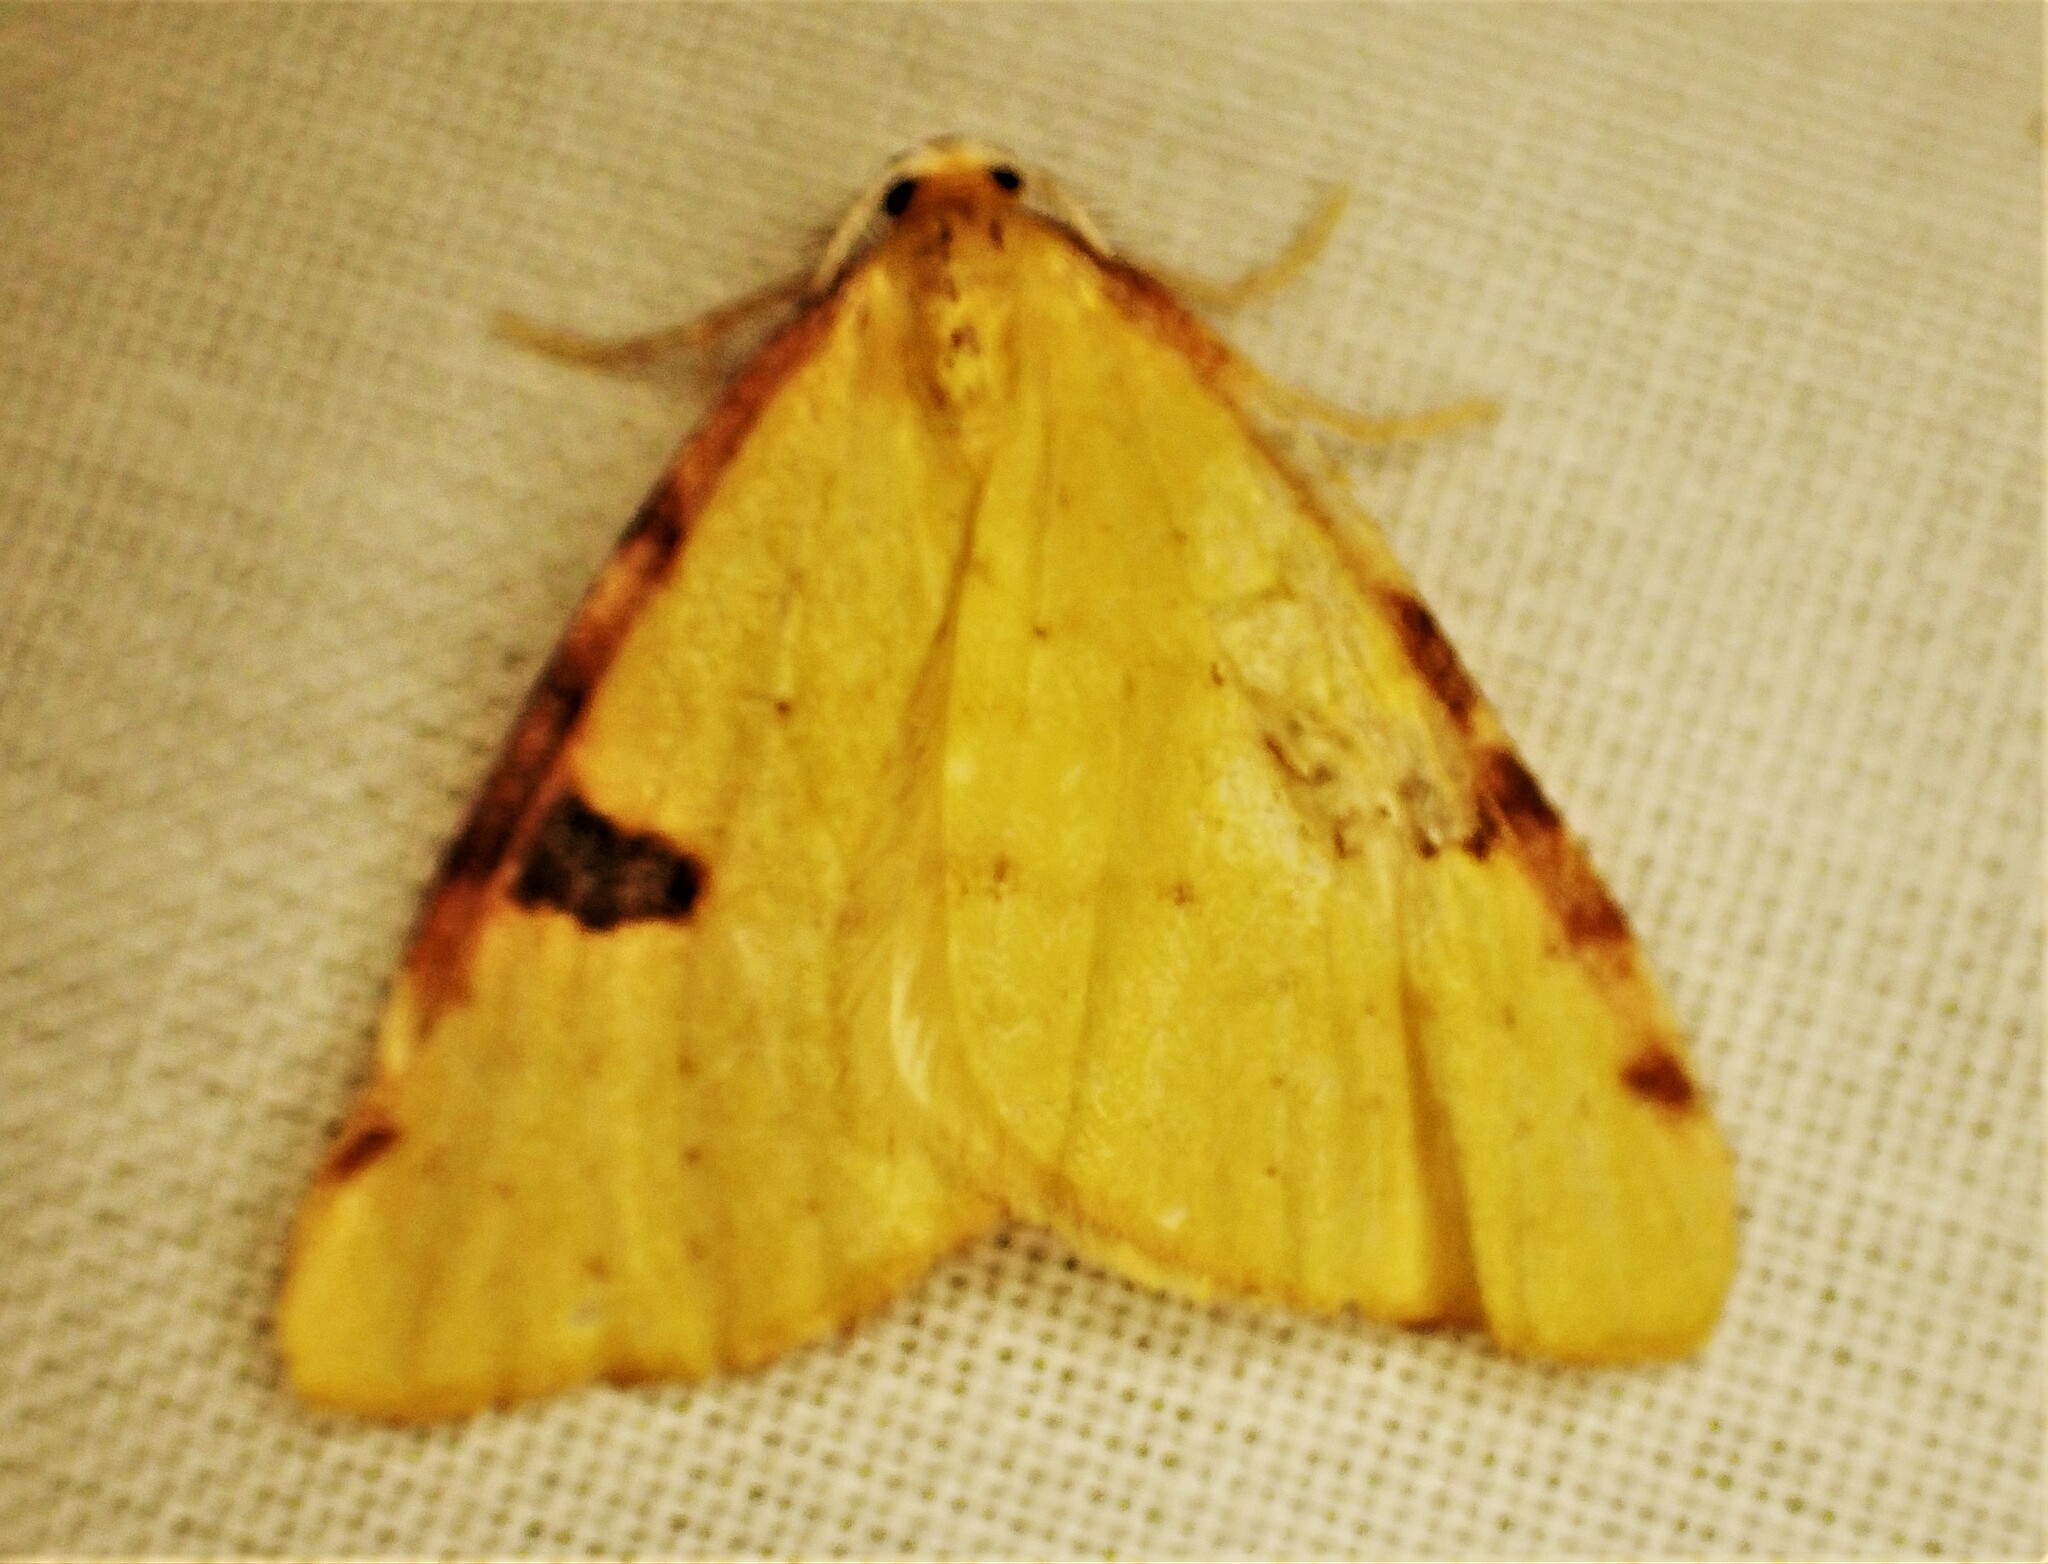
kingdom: Animalia
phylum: Arthropoda
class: Insecta
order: Lepidoptera
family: Geometridae
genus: Epiphryne
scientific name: Epiphryne xanthaspis
